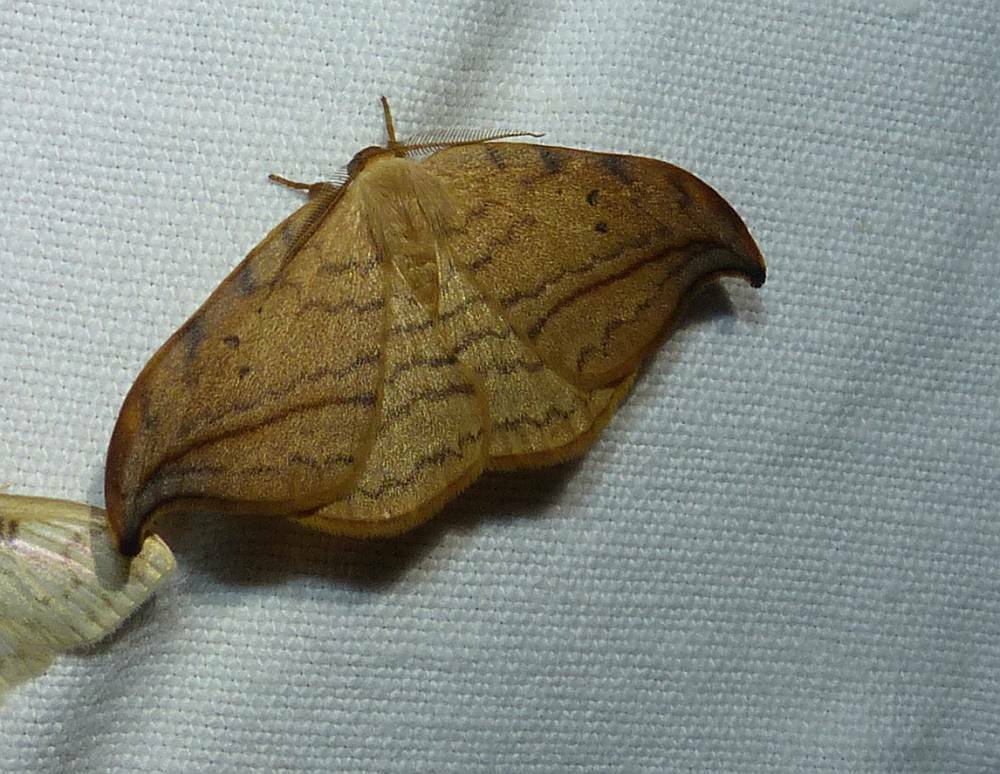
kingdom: Animalia
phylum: Arthropoda
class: Insecta
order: Lepidoptera
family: Drepanidae
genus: Drepana
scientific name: Drepana arcuata
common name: Arched hooktip moth
